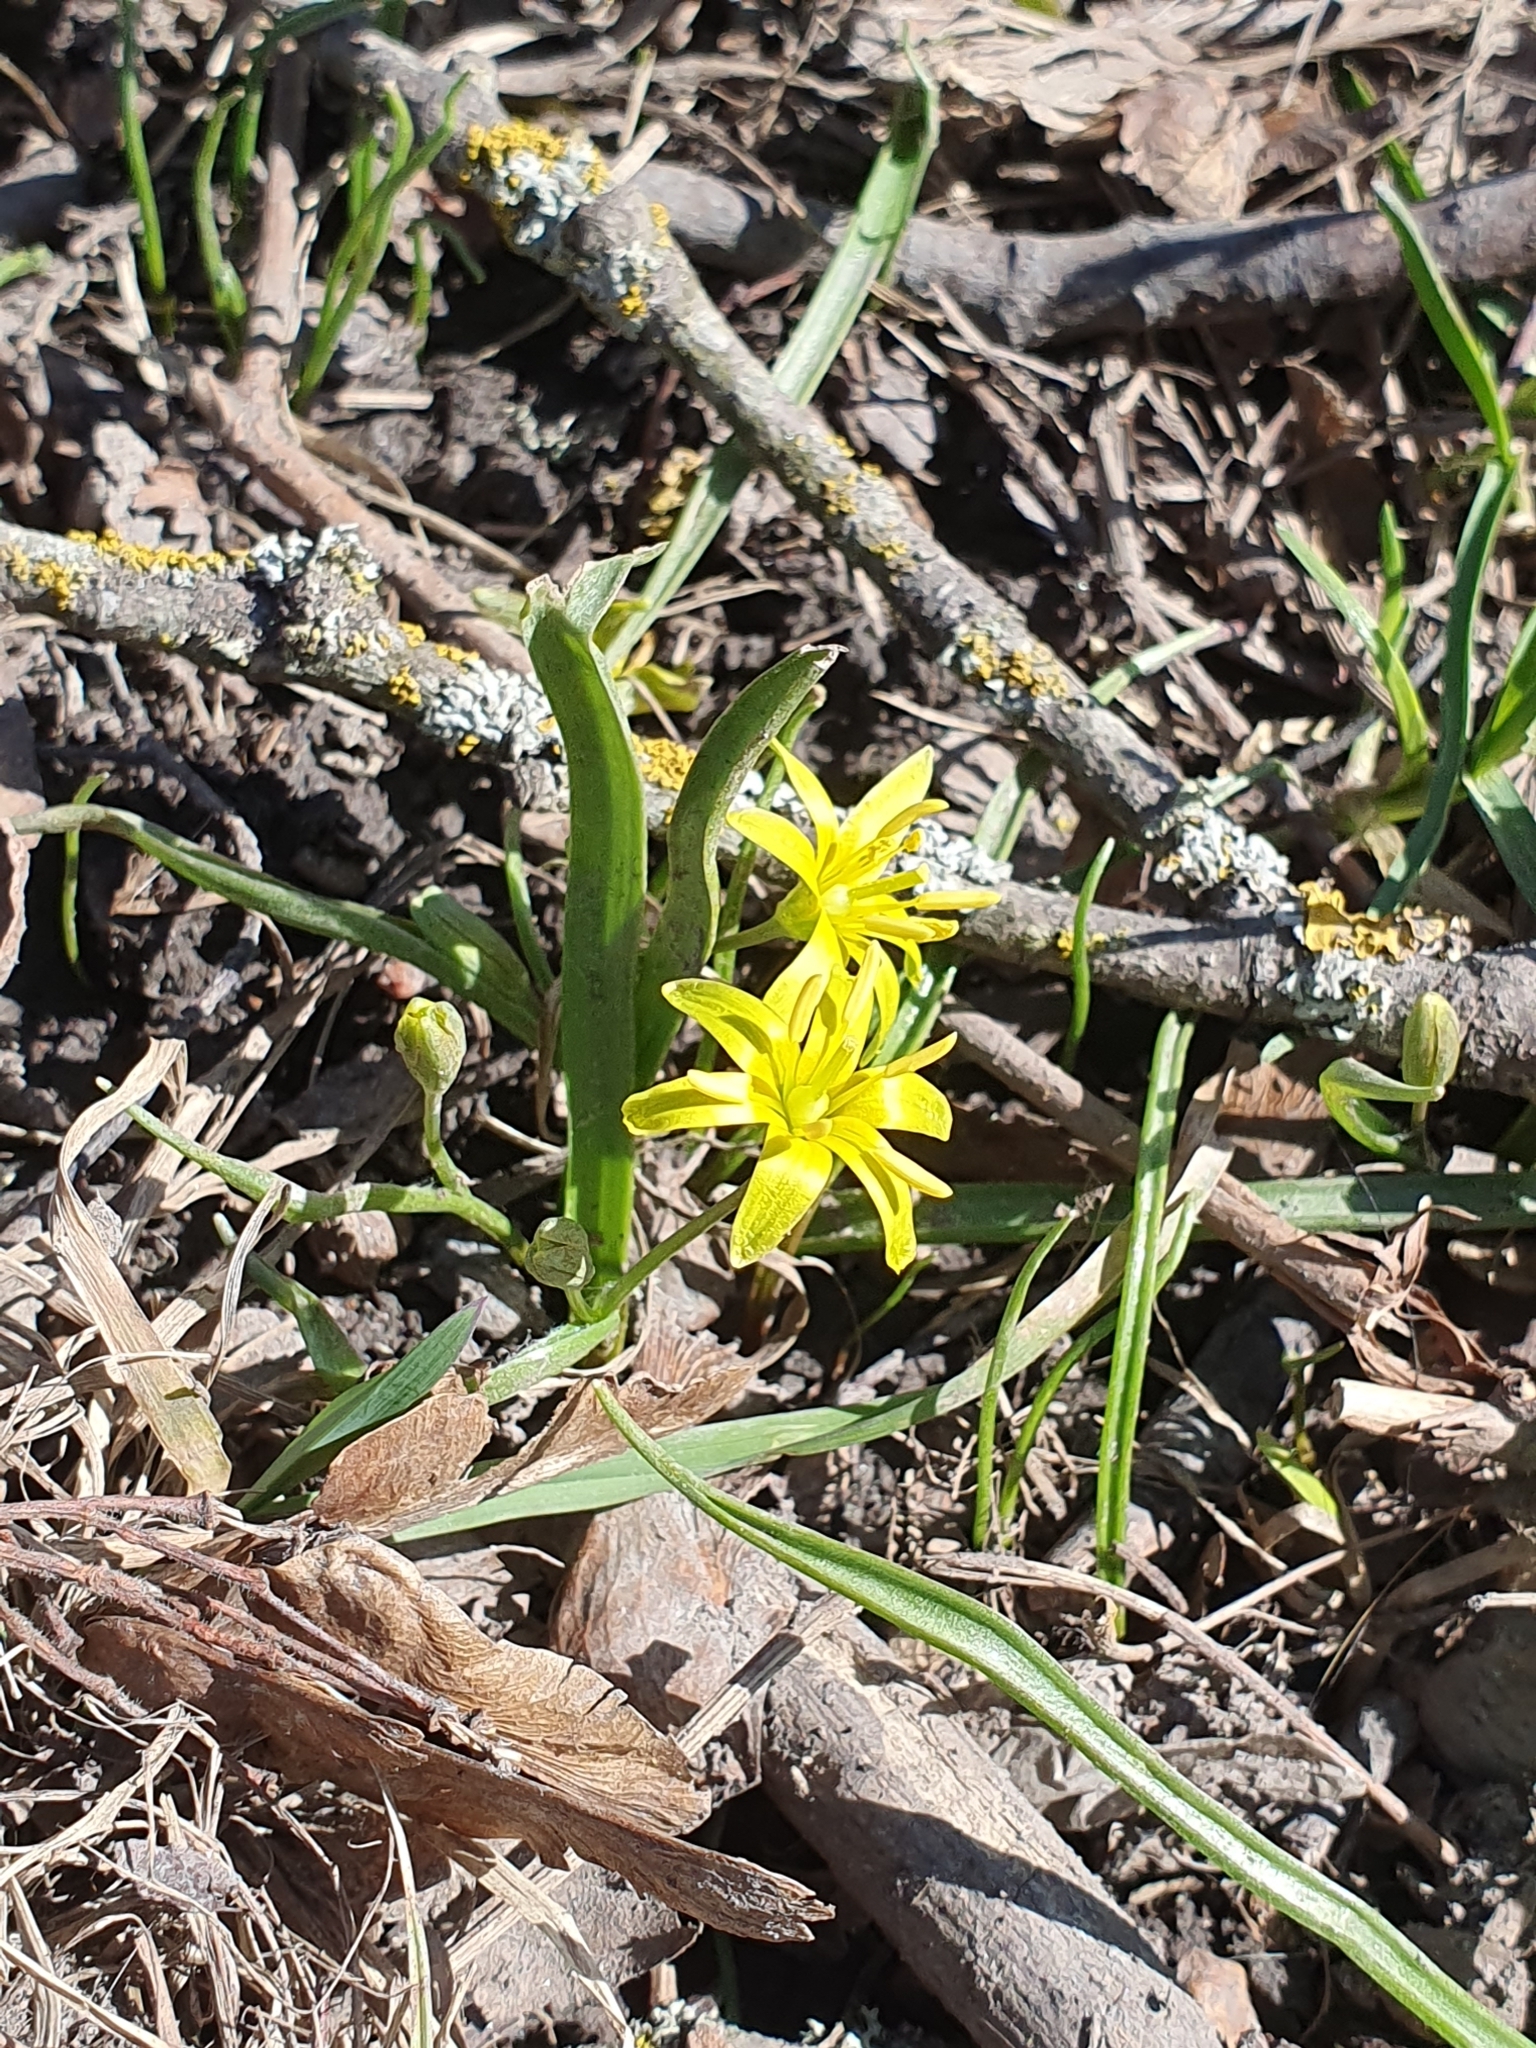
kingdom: Plantae
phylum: Tracheophyta
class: Liliopsida
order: Liliales
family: Liliaceae
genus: Gagea
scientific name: Gagea lutea
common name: Yellow star-of-bethlehem
